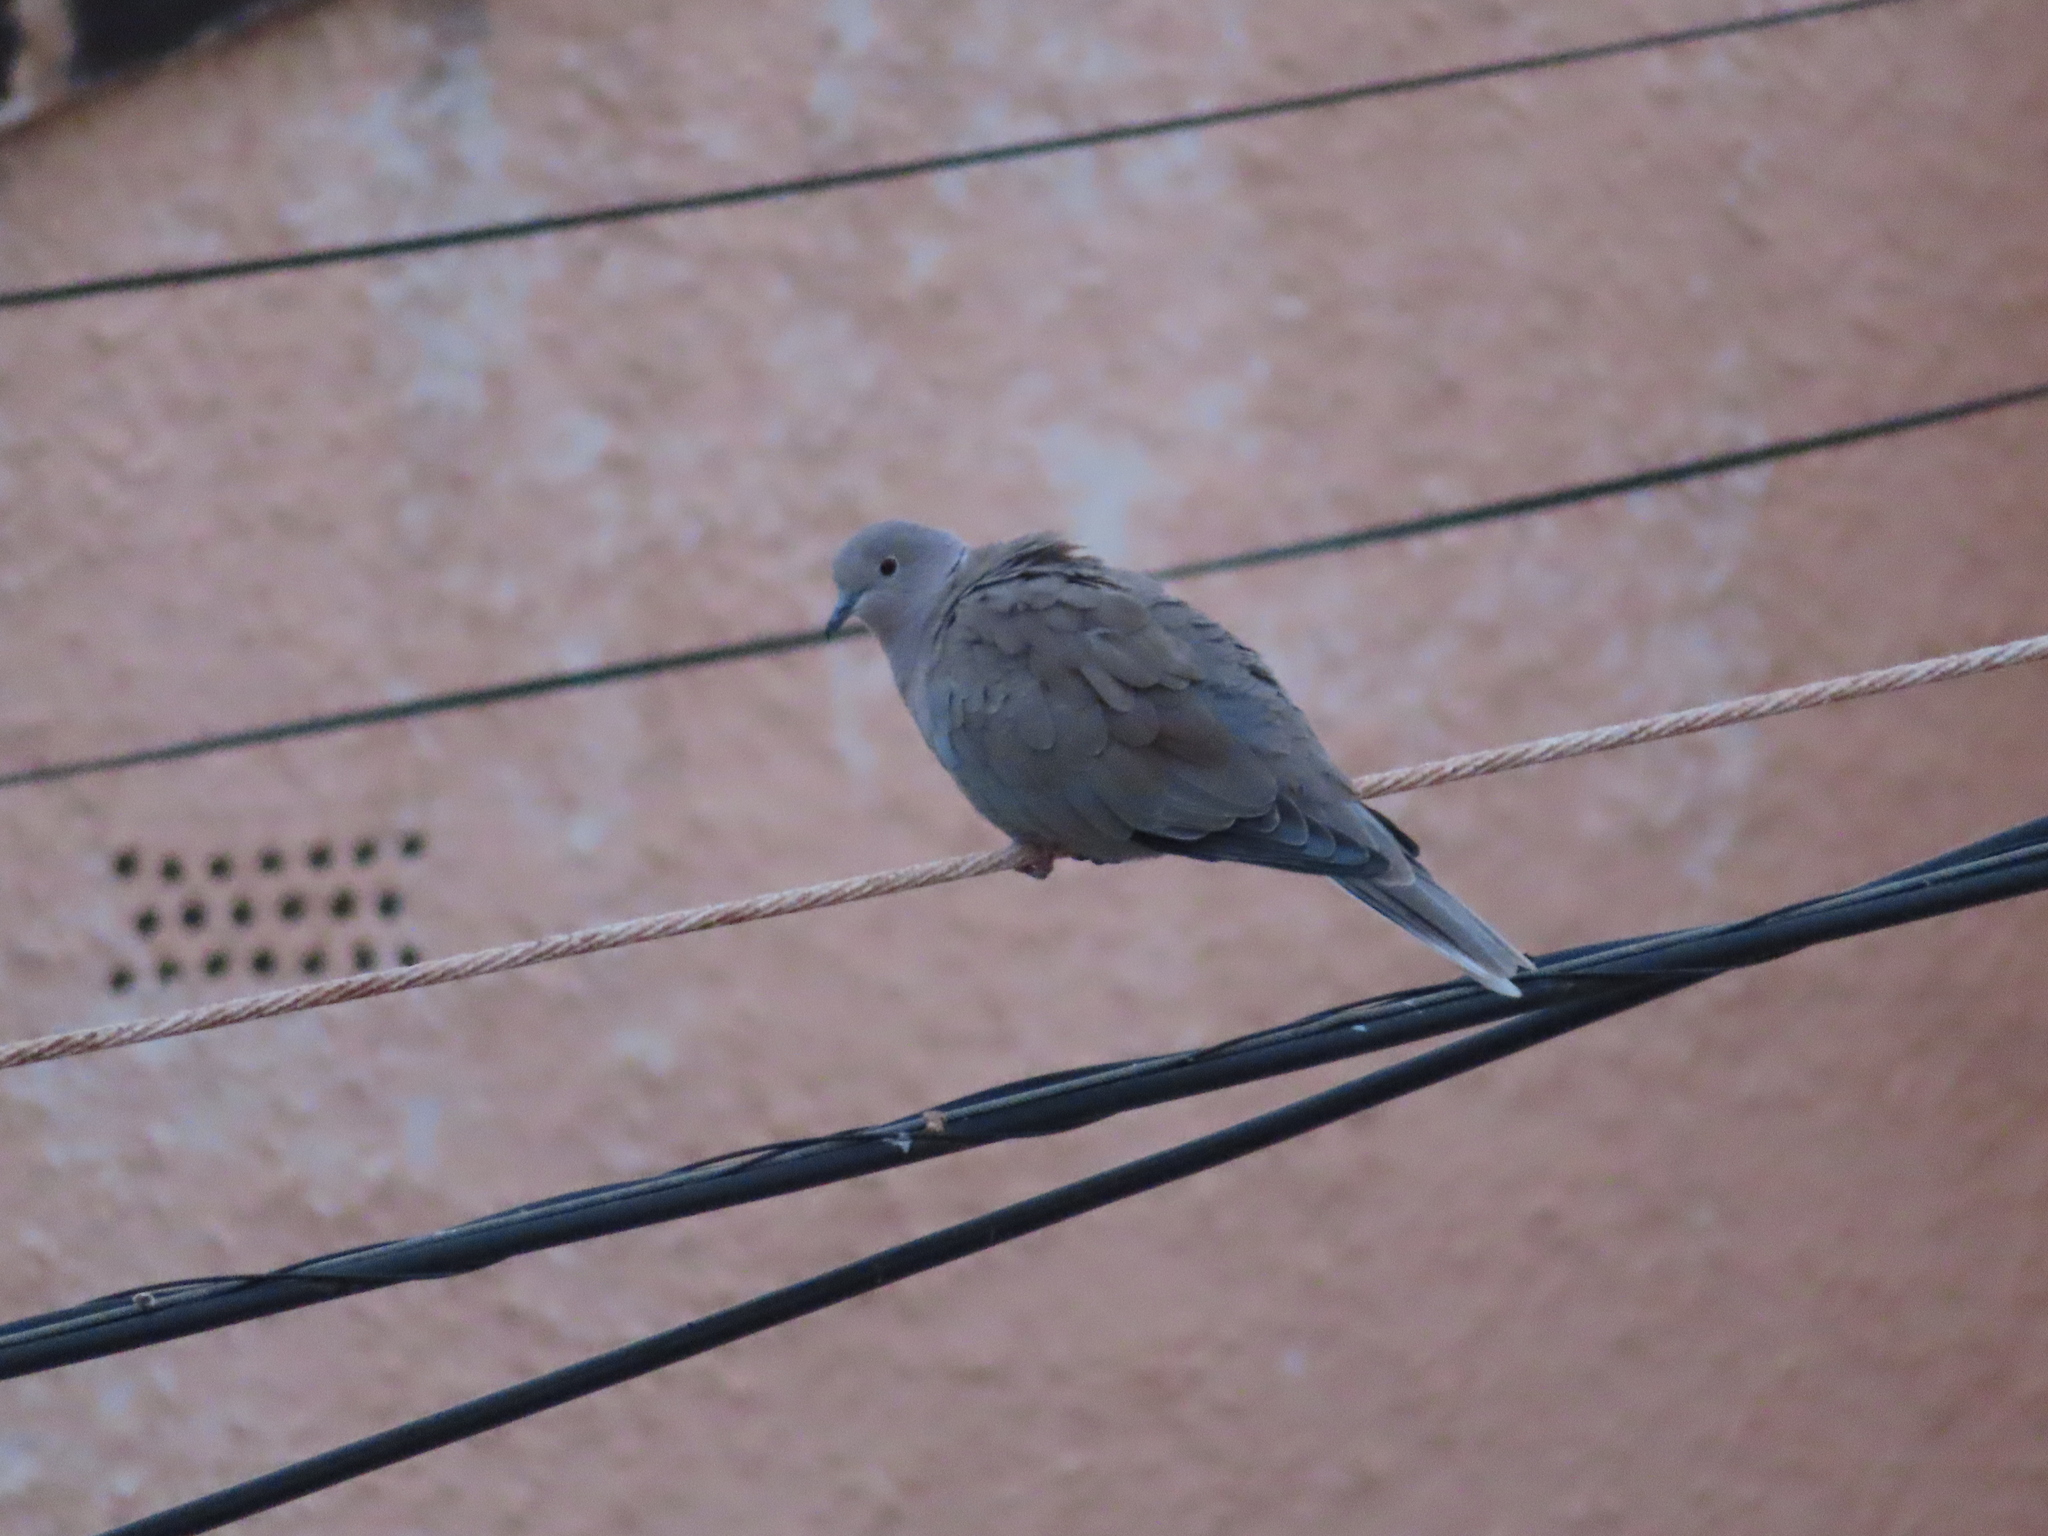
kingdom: Animalia
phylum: Chordata
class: Aves
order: Columbiformes
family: Columbidae
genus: Streptopelia
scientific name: Streptopelia decaocto
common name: Eurasian collared dove
